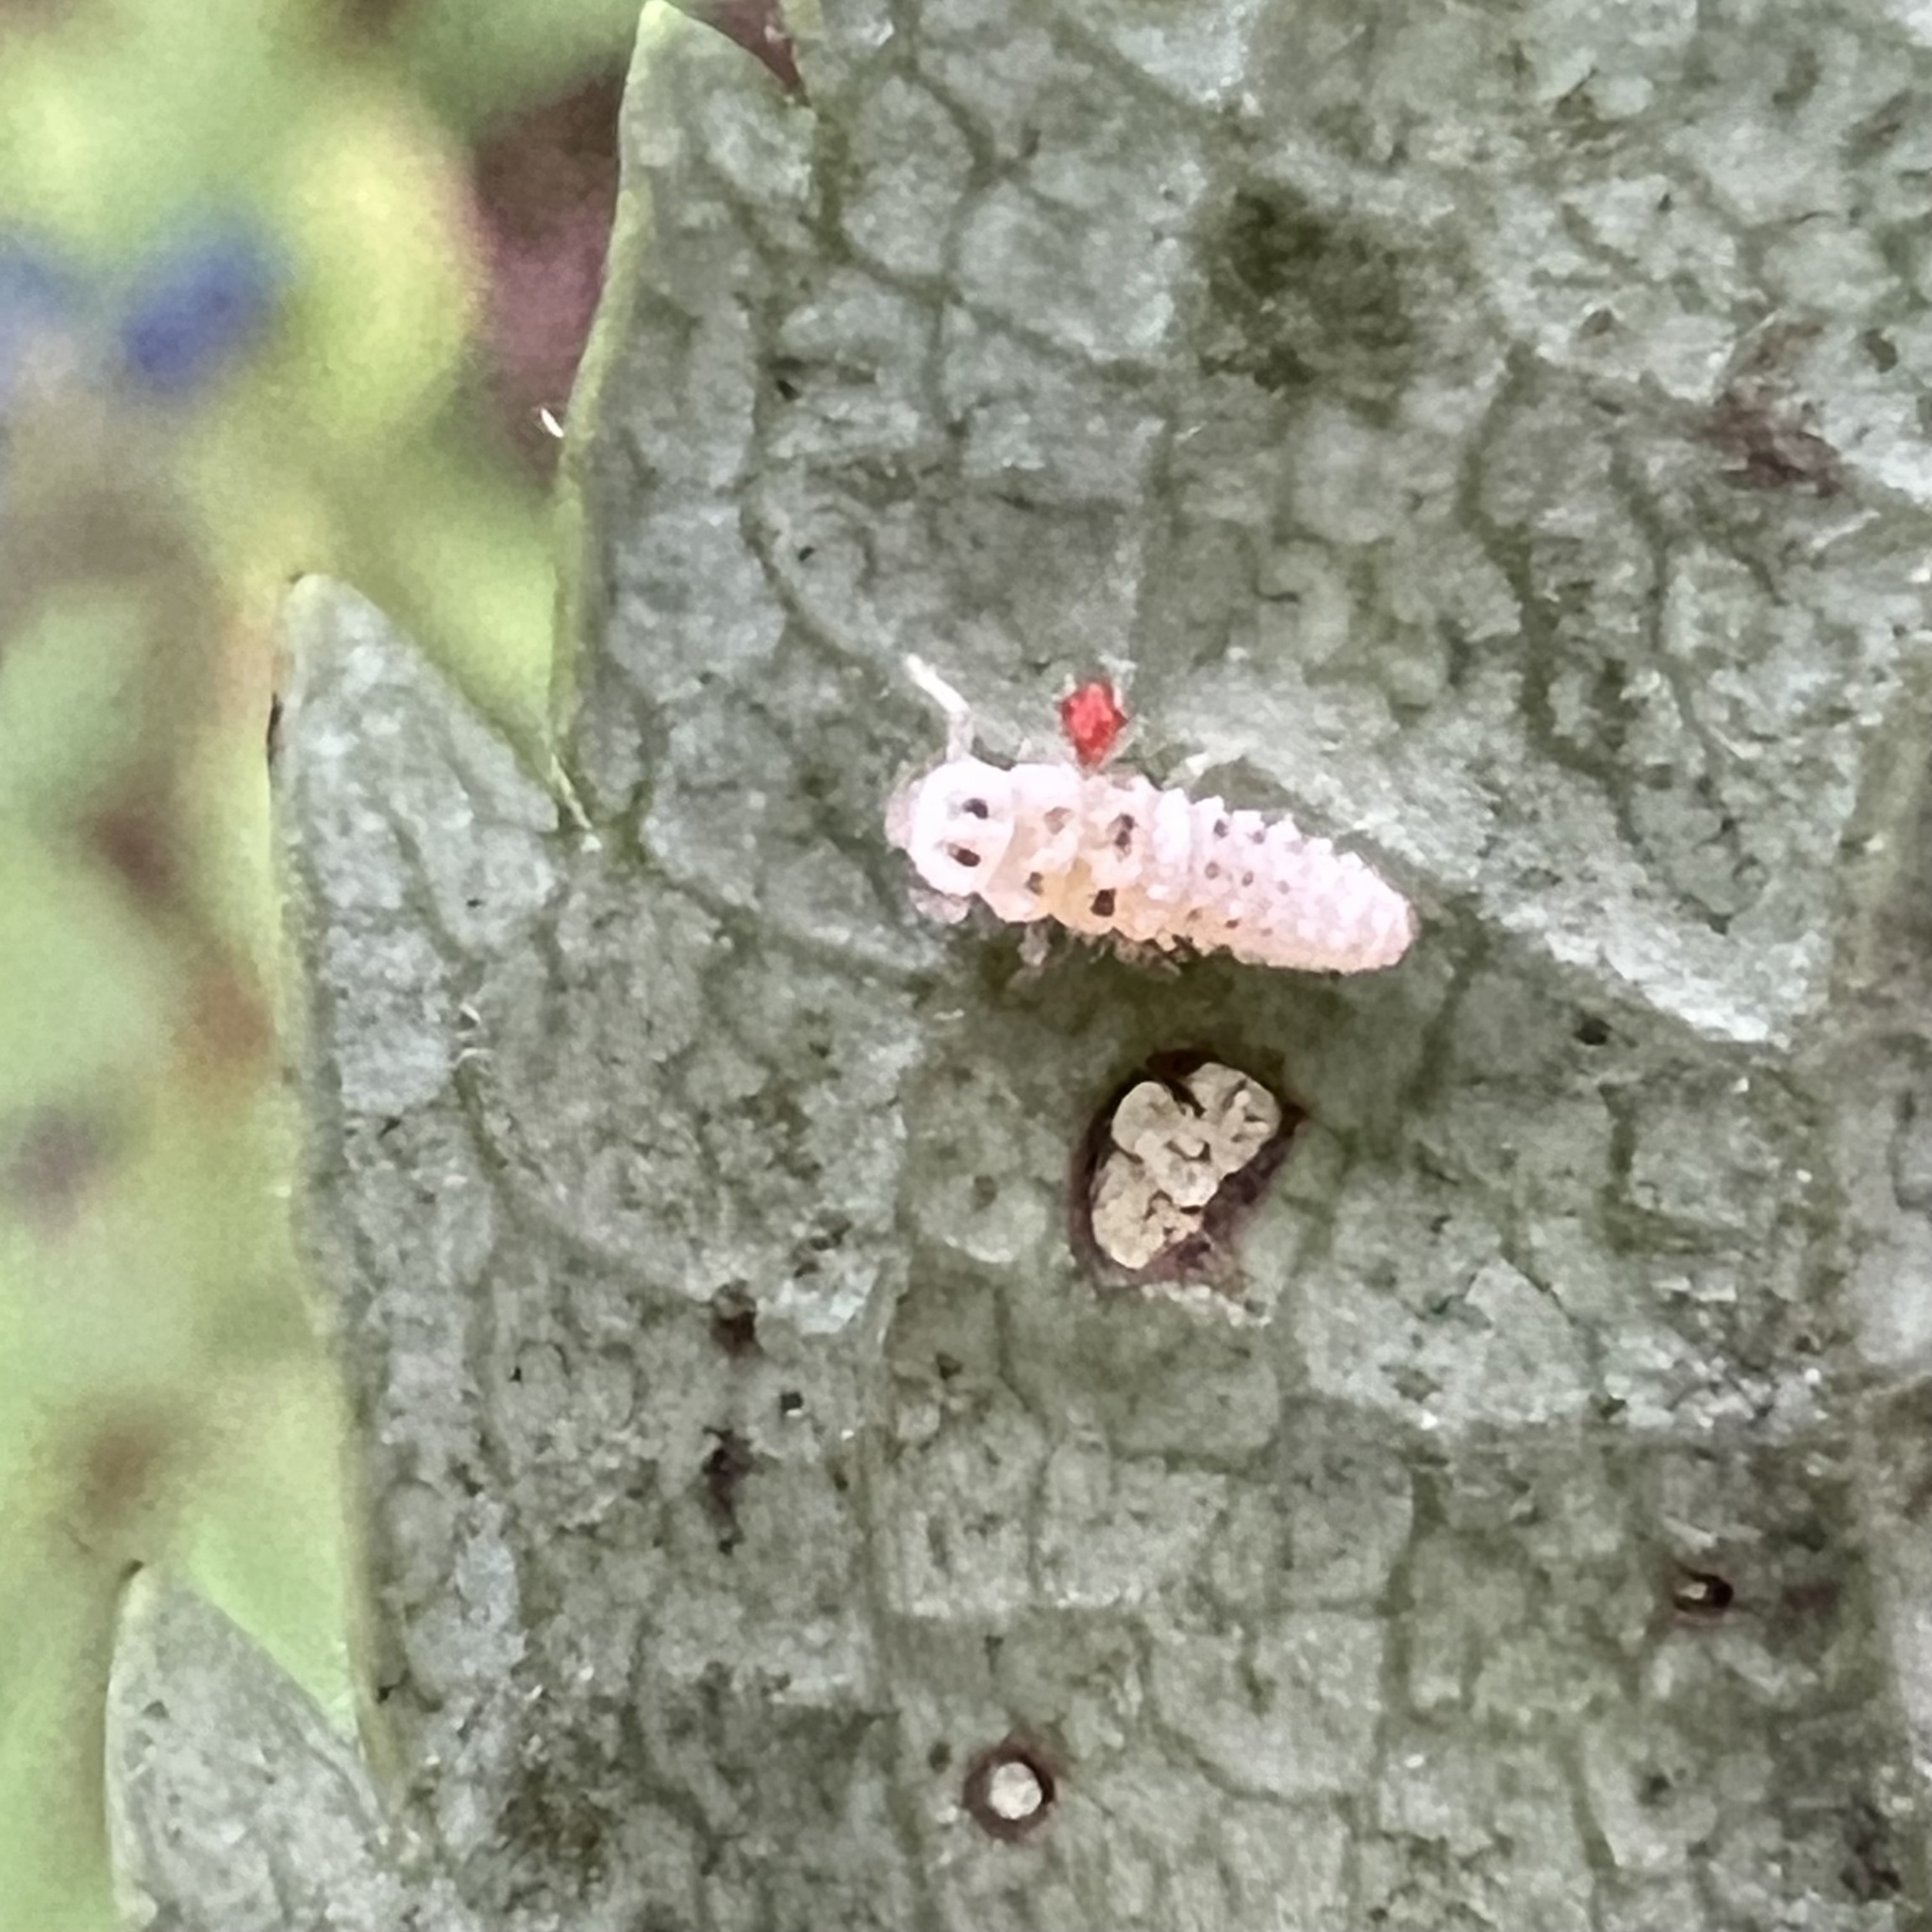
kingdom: Animalia
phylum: Arthropoda
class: Insecta
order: Coleoptera
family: Coccinellidae
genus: Psyllobora
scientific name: Psyllobora vigintimaculata
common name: Ladybird beetle
